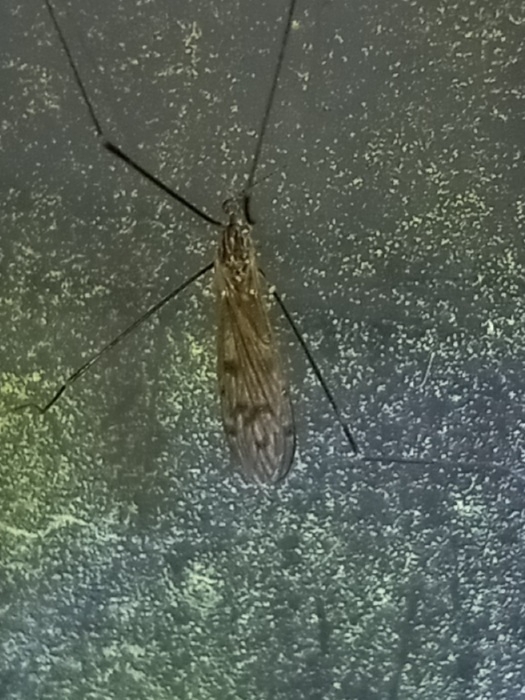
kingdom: Animalia
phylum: Arthropoda
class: Insecta
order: Diptera
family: Limoniidae
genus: Metalimnobia
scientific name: Metalimnobia novaeangliae
